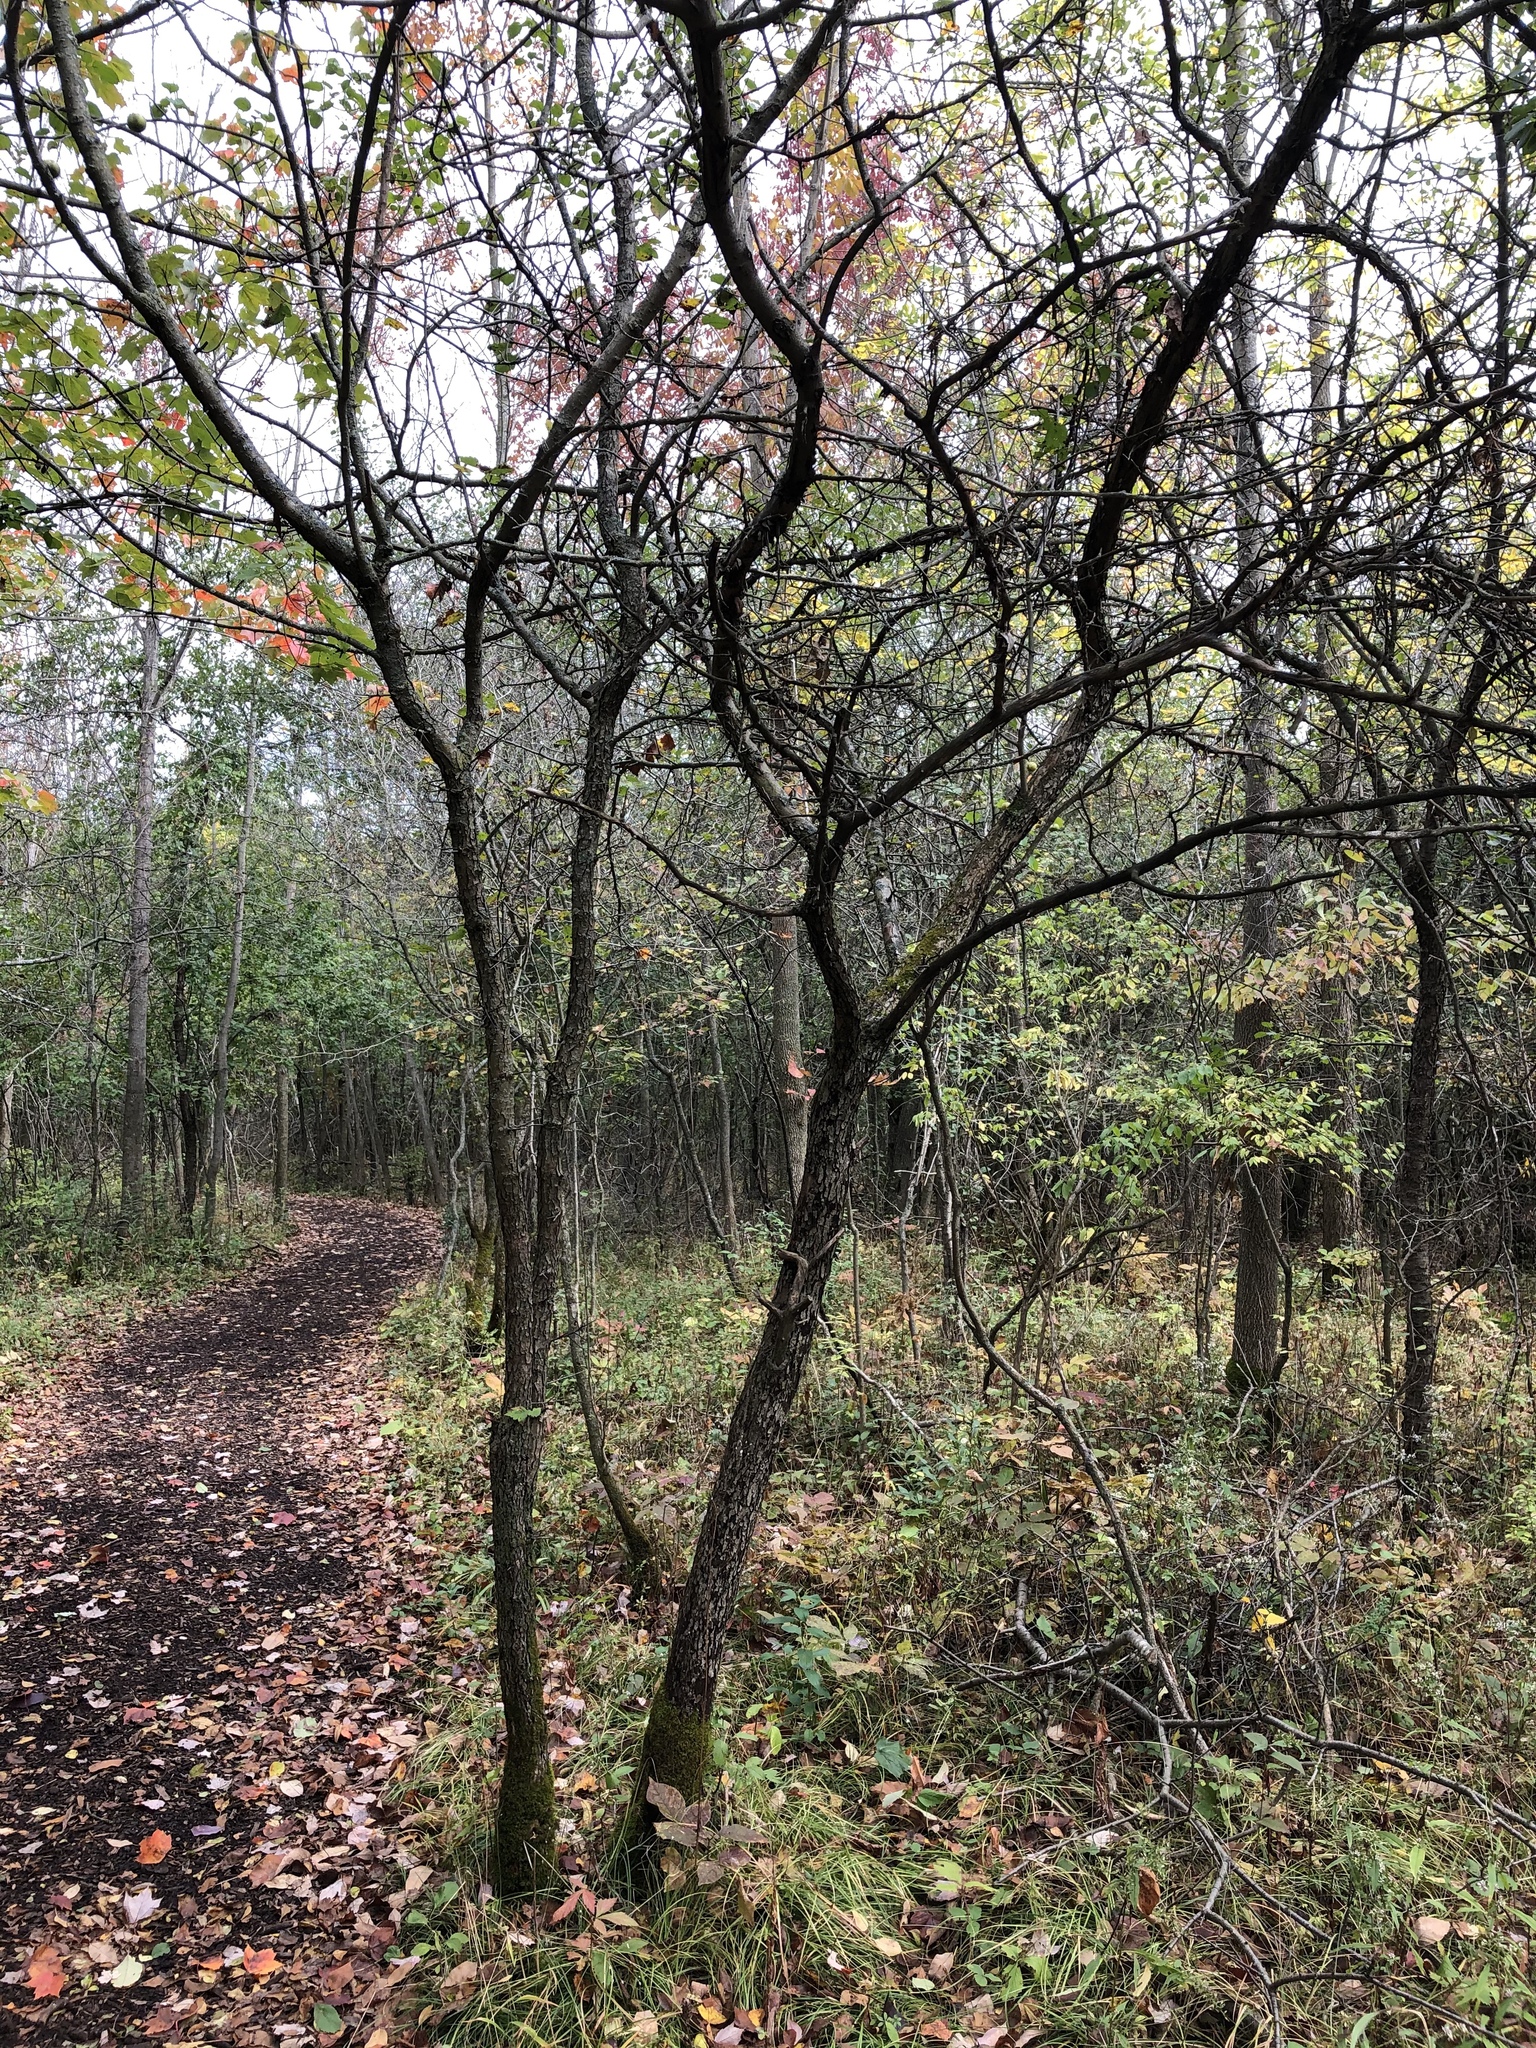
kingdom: Plantae
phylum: Tracheophyta
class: Magnoliopsida
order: Rosales
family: Rosaceae
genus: Malus
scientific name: Malus coronaria
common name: Sweet crab apple
